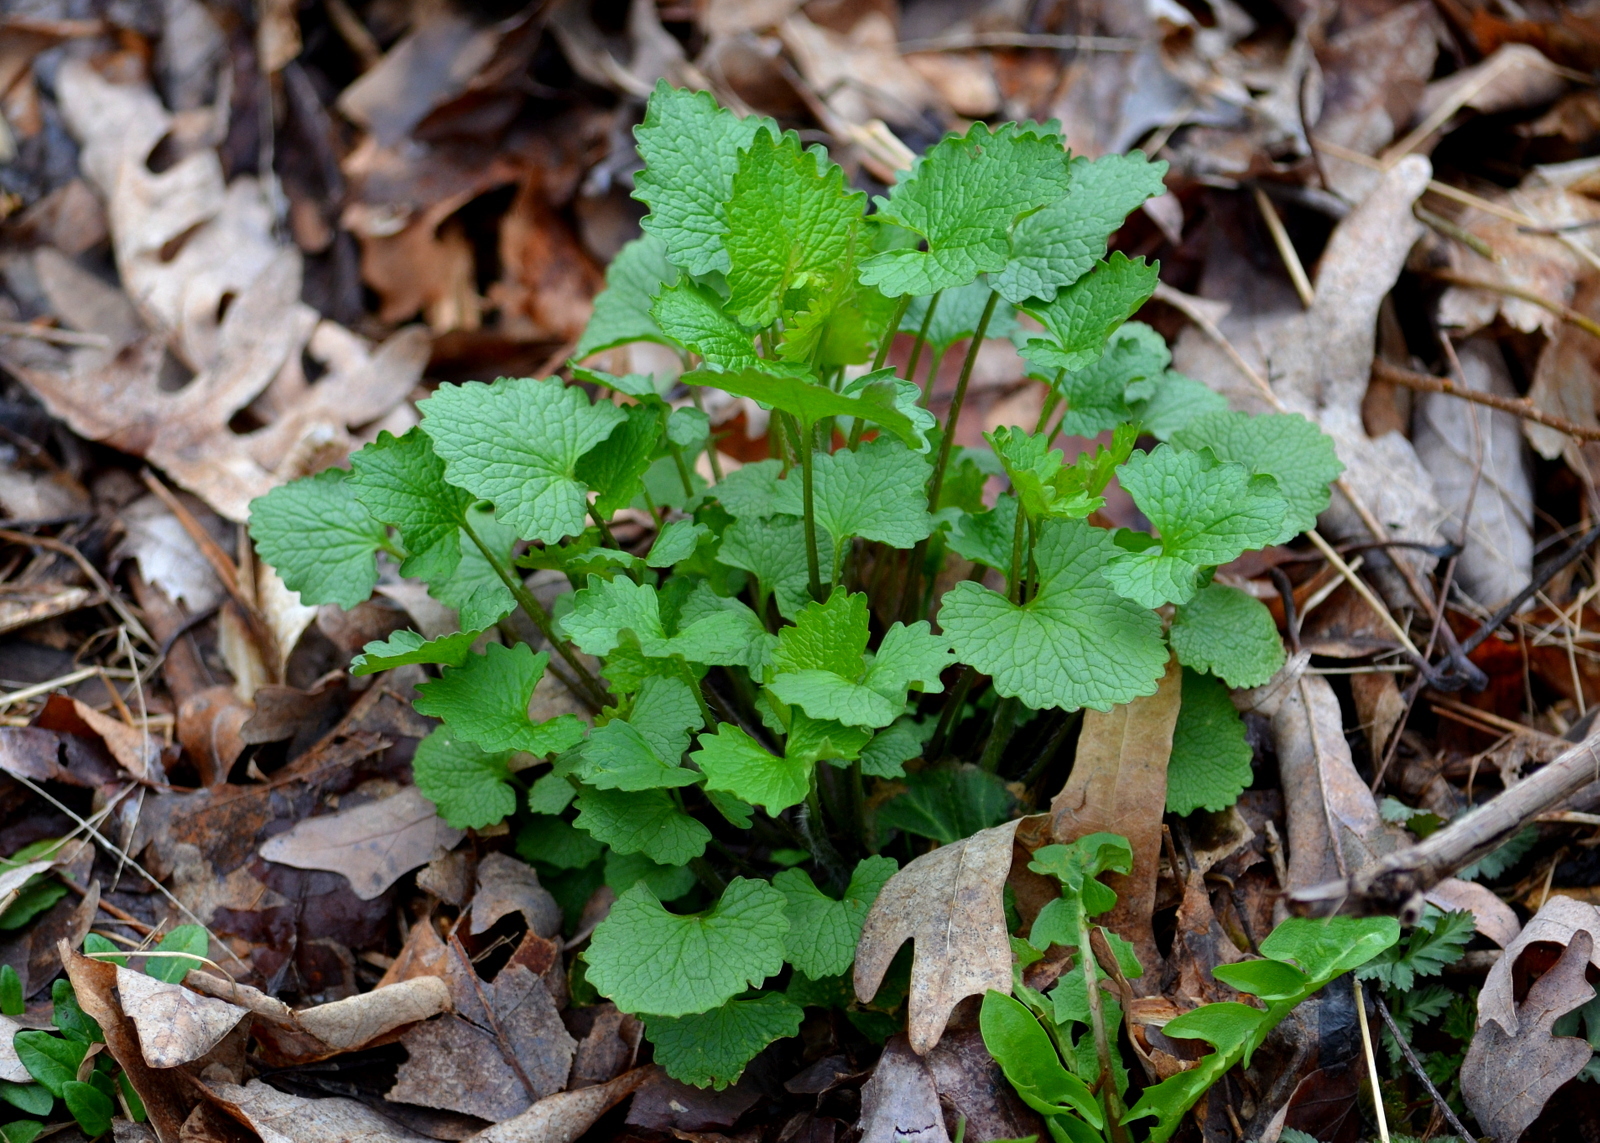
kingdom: Plantae
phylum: Tracheophyta
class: Magnoliopsida
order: Brassicales
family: Brassicaceae
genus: Alliaria
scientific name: Alliaria petiolata
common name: Garlic mustard
